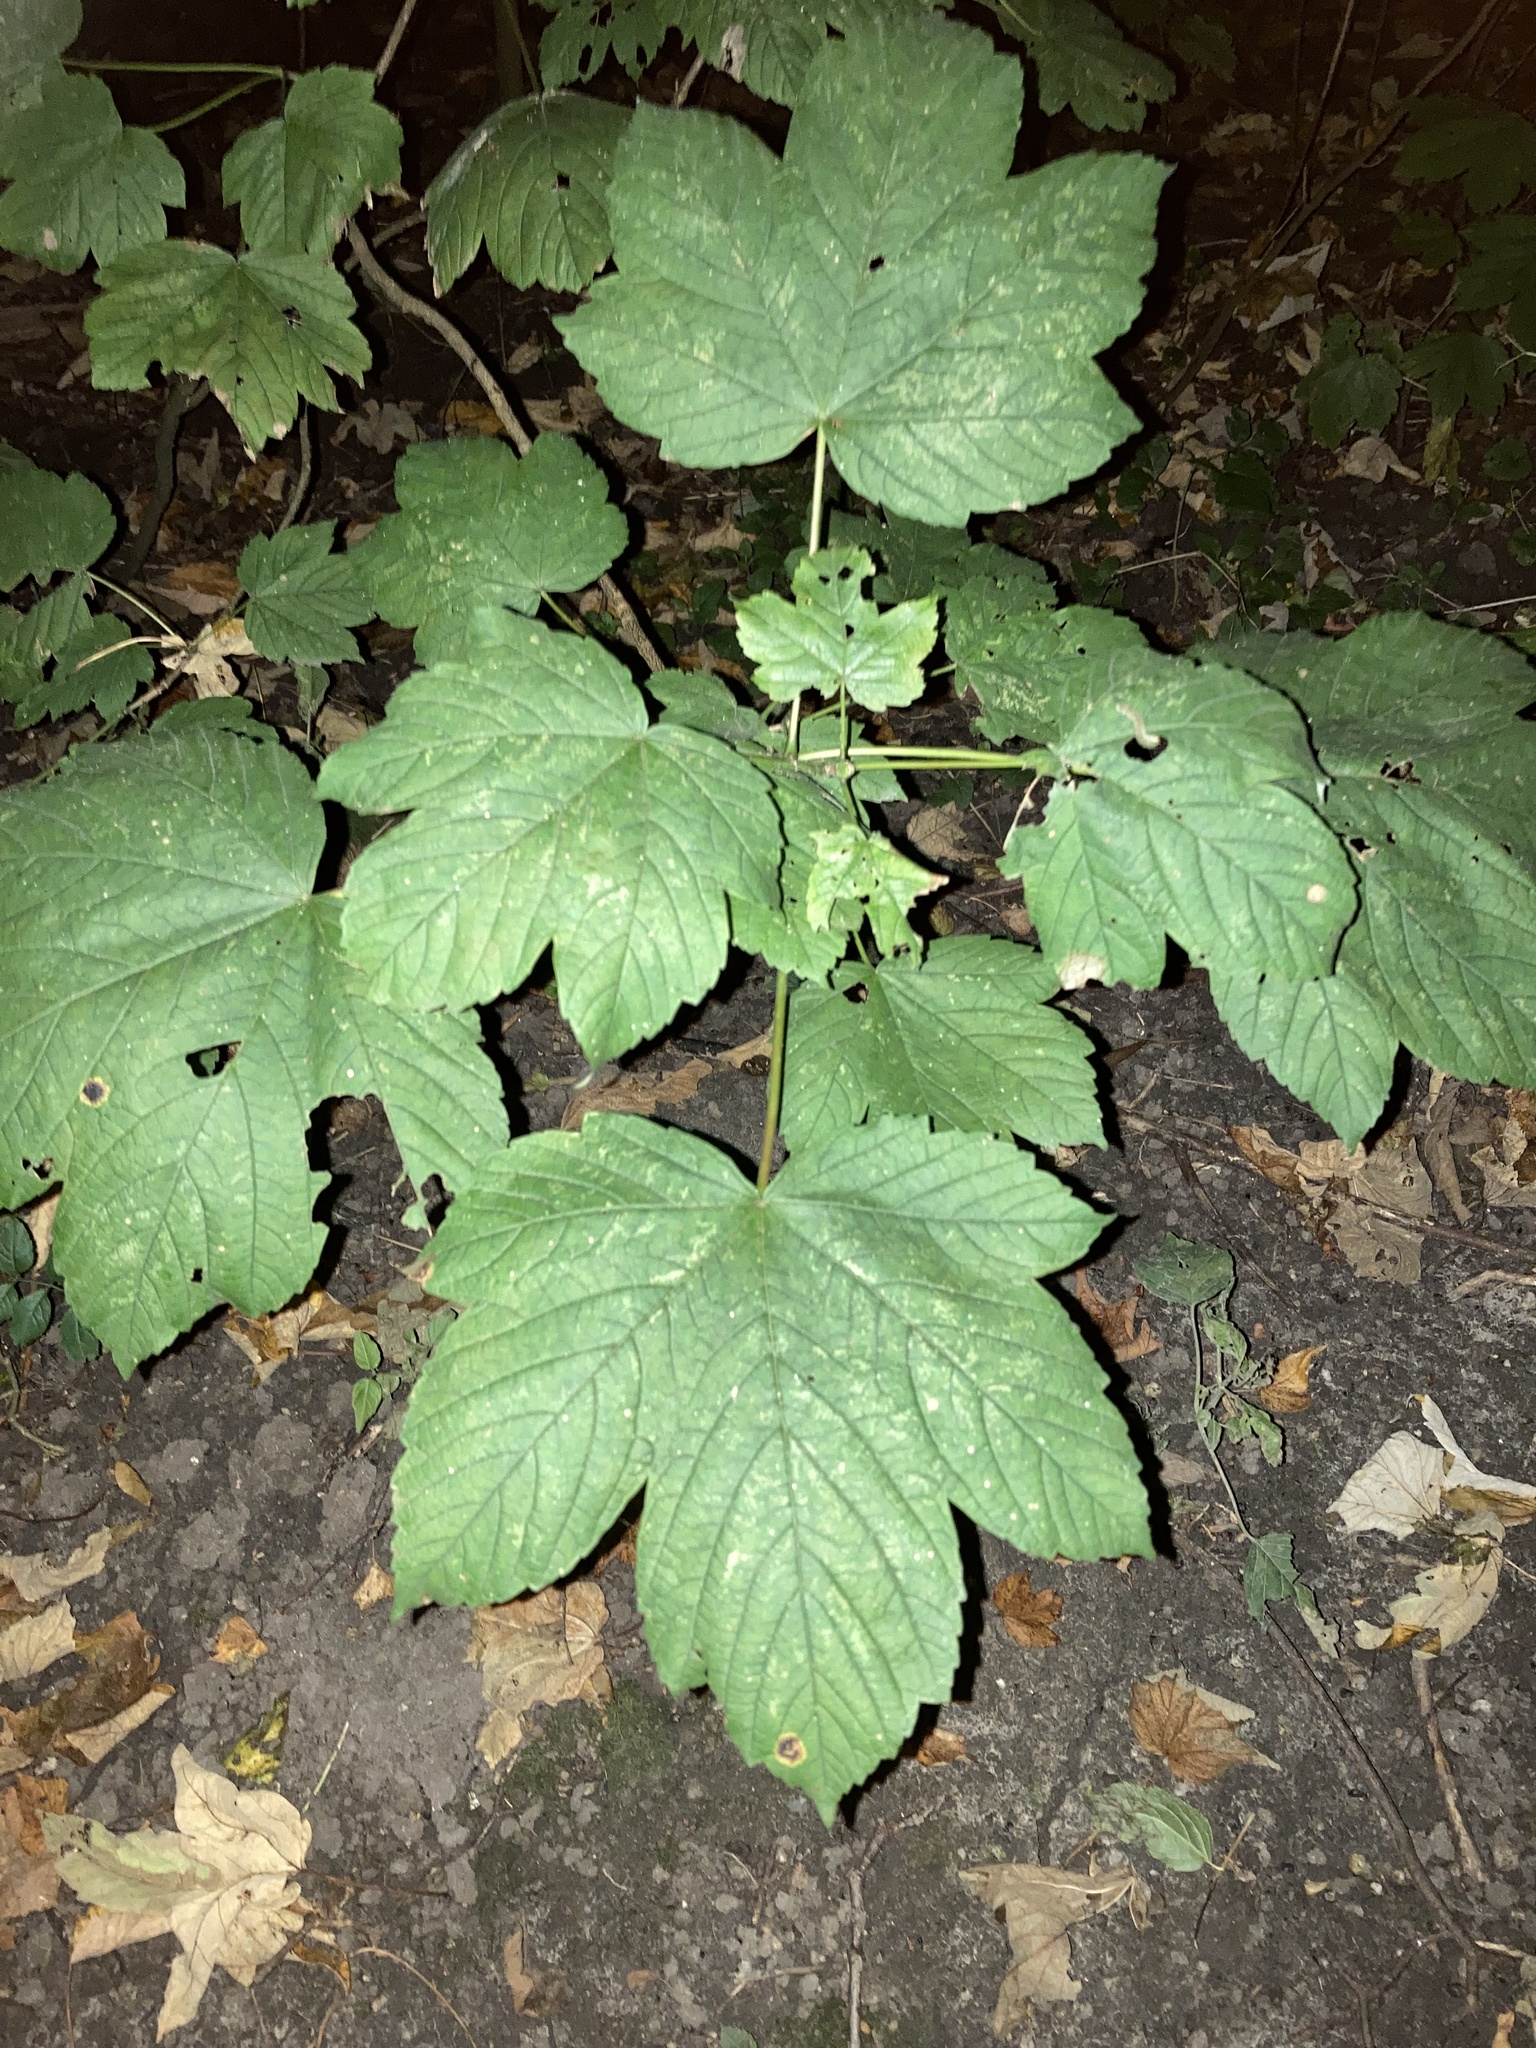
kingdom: Plantae
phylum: Tracheophyta
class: Magnoliopsida
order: Sapindales
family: Sapindaceae
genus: Acer
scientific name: Acer pseudoplatanus
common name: Sycamore
